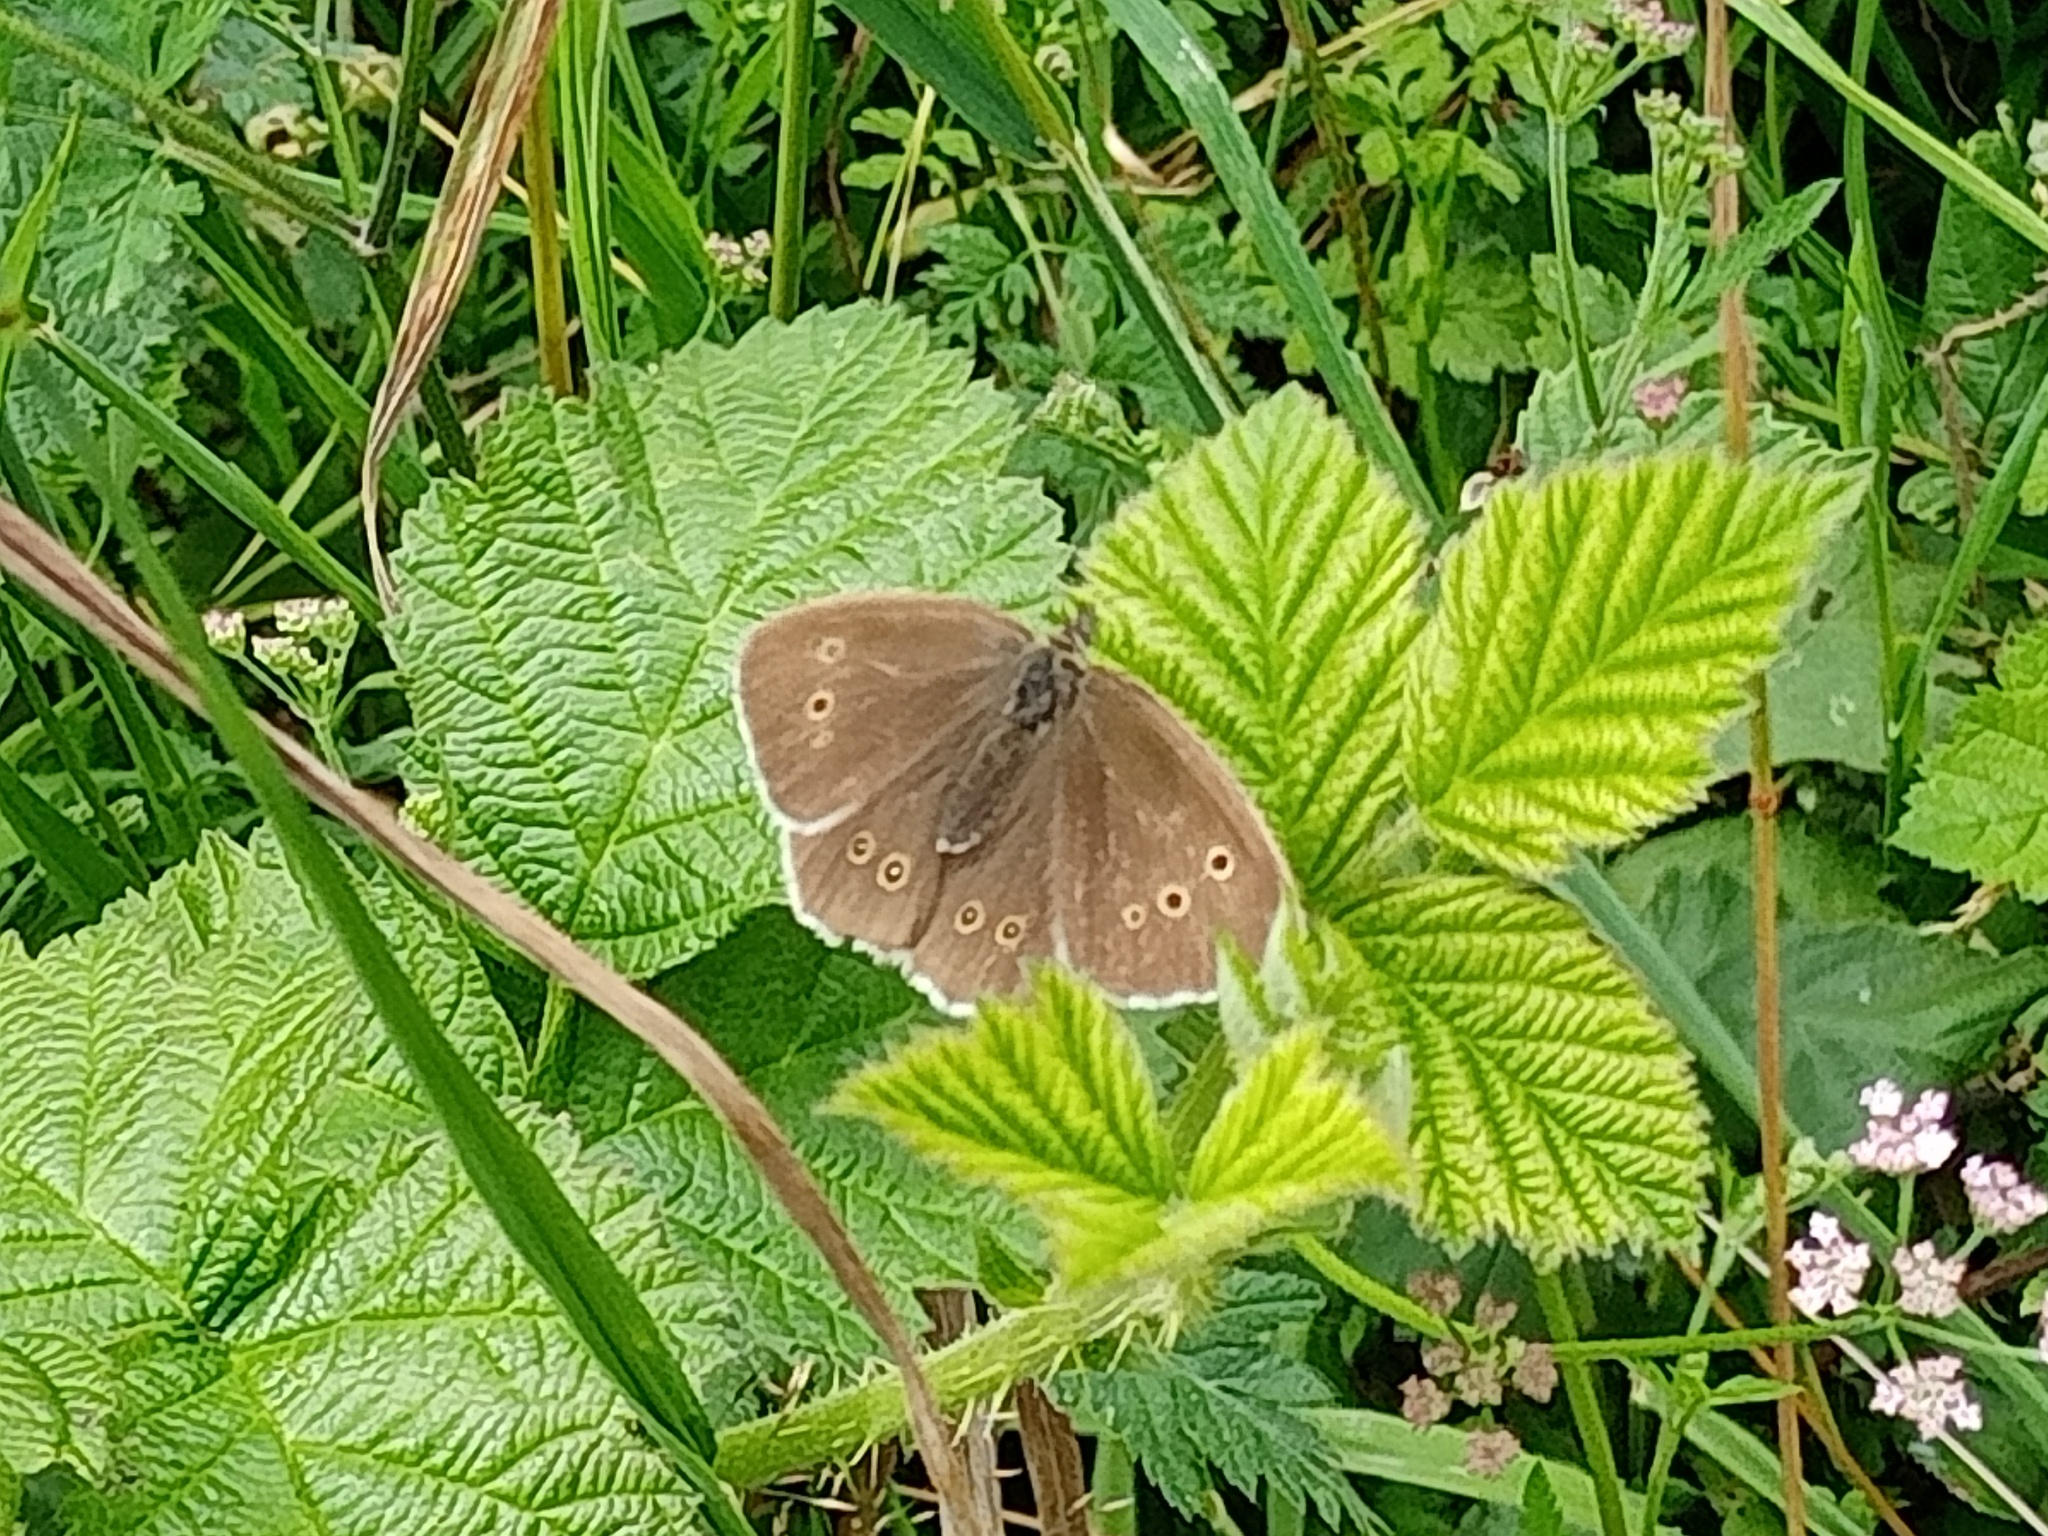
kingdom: Animalia
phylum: Arthropoda
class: Insecta
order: Lepidoptera
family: Nymphalidae
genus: Aphantopus
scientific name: Aphantopus hyperantus
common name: Ringlet
